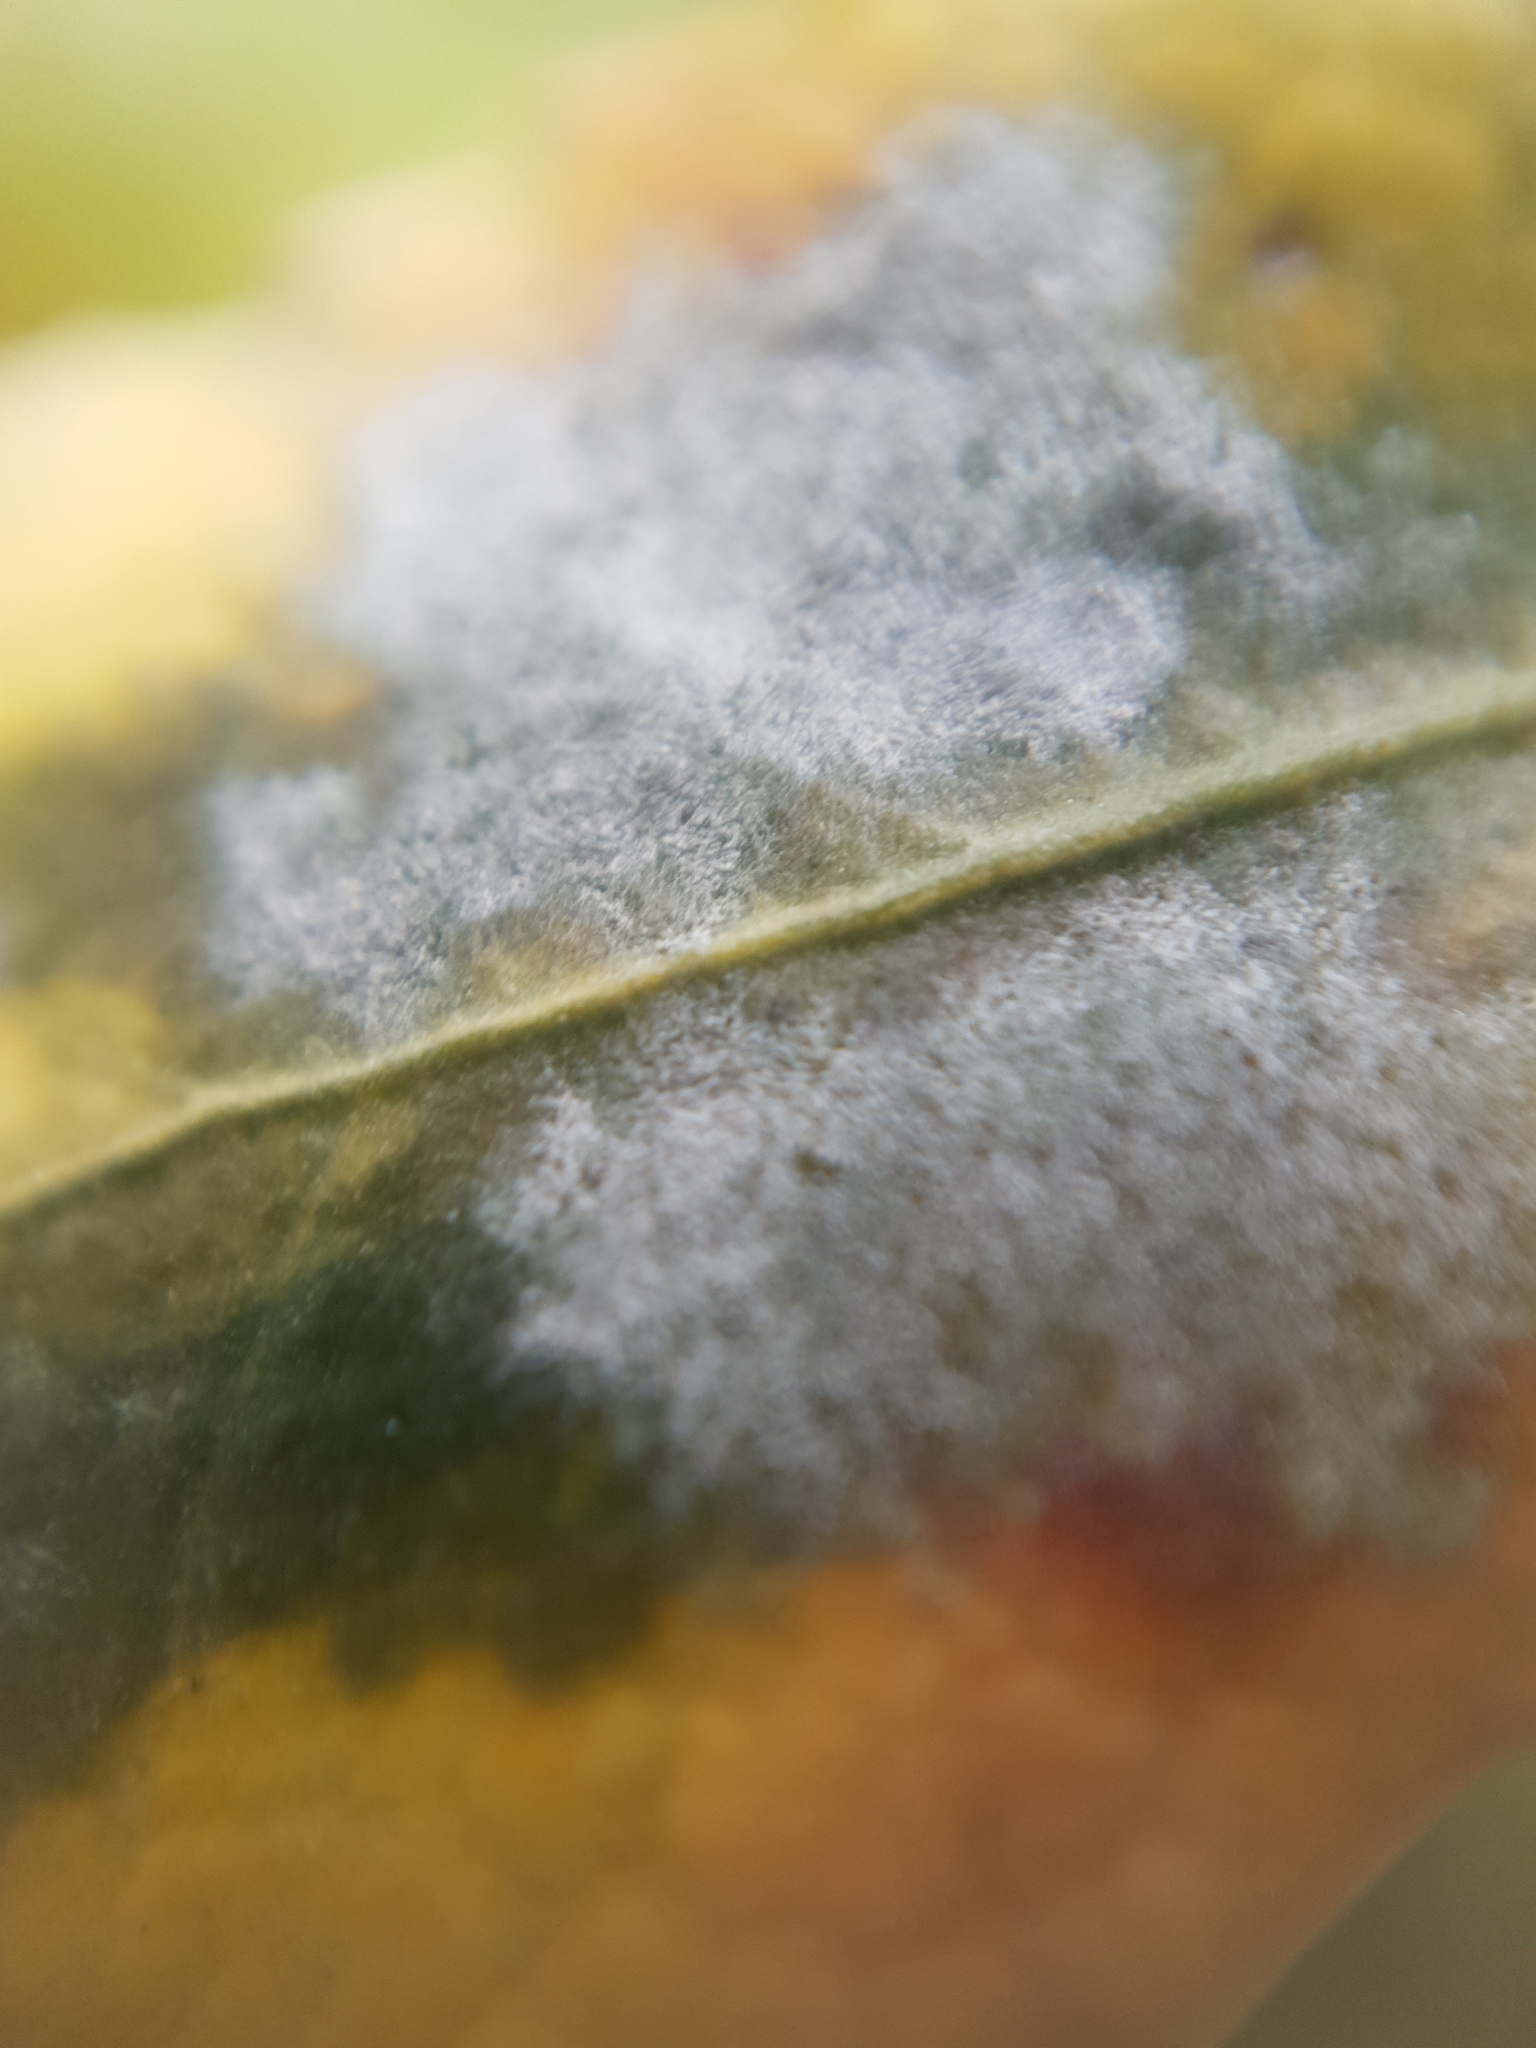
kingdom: Fungi
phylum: Ascomycota
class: Leotiomycetes
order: Helotiales
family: Erysiphaceae
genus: Erysiphe
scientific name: Erysiphe euonymicola
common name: Spindletree mildew
